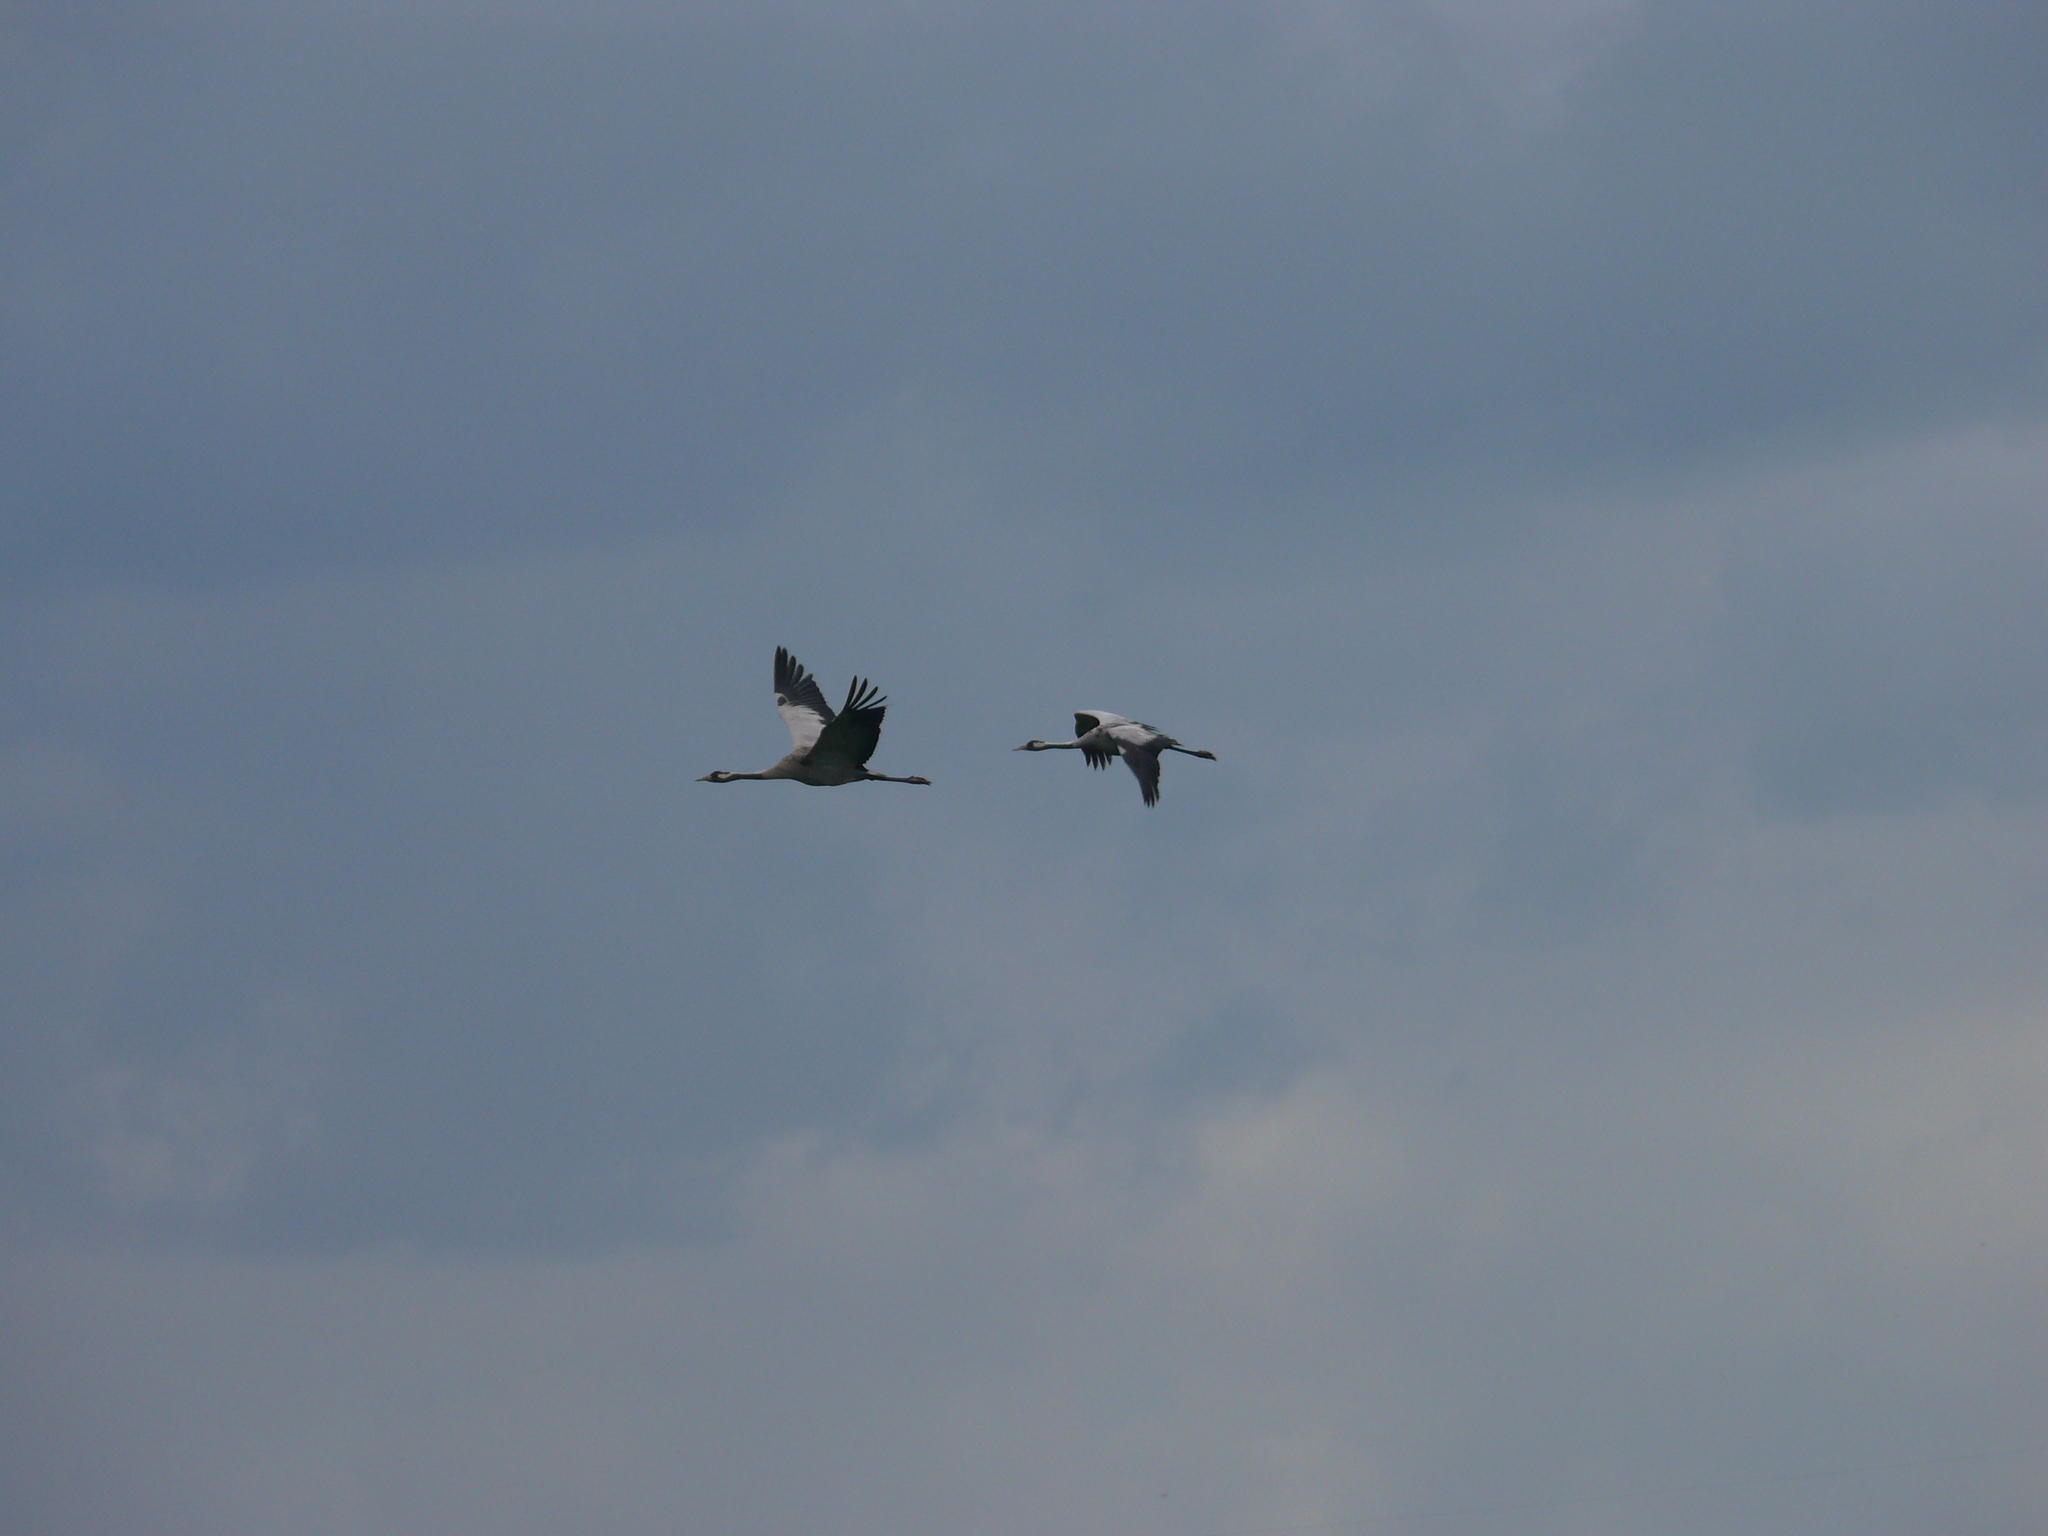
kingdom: Animalia
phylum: Chordata
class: Aves
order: Gruiformes
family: Gruidae
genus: Grus
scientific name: Grus grus
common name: Common crane
